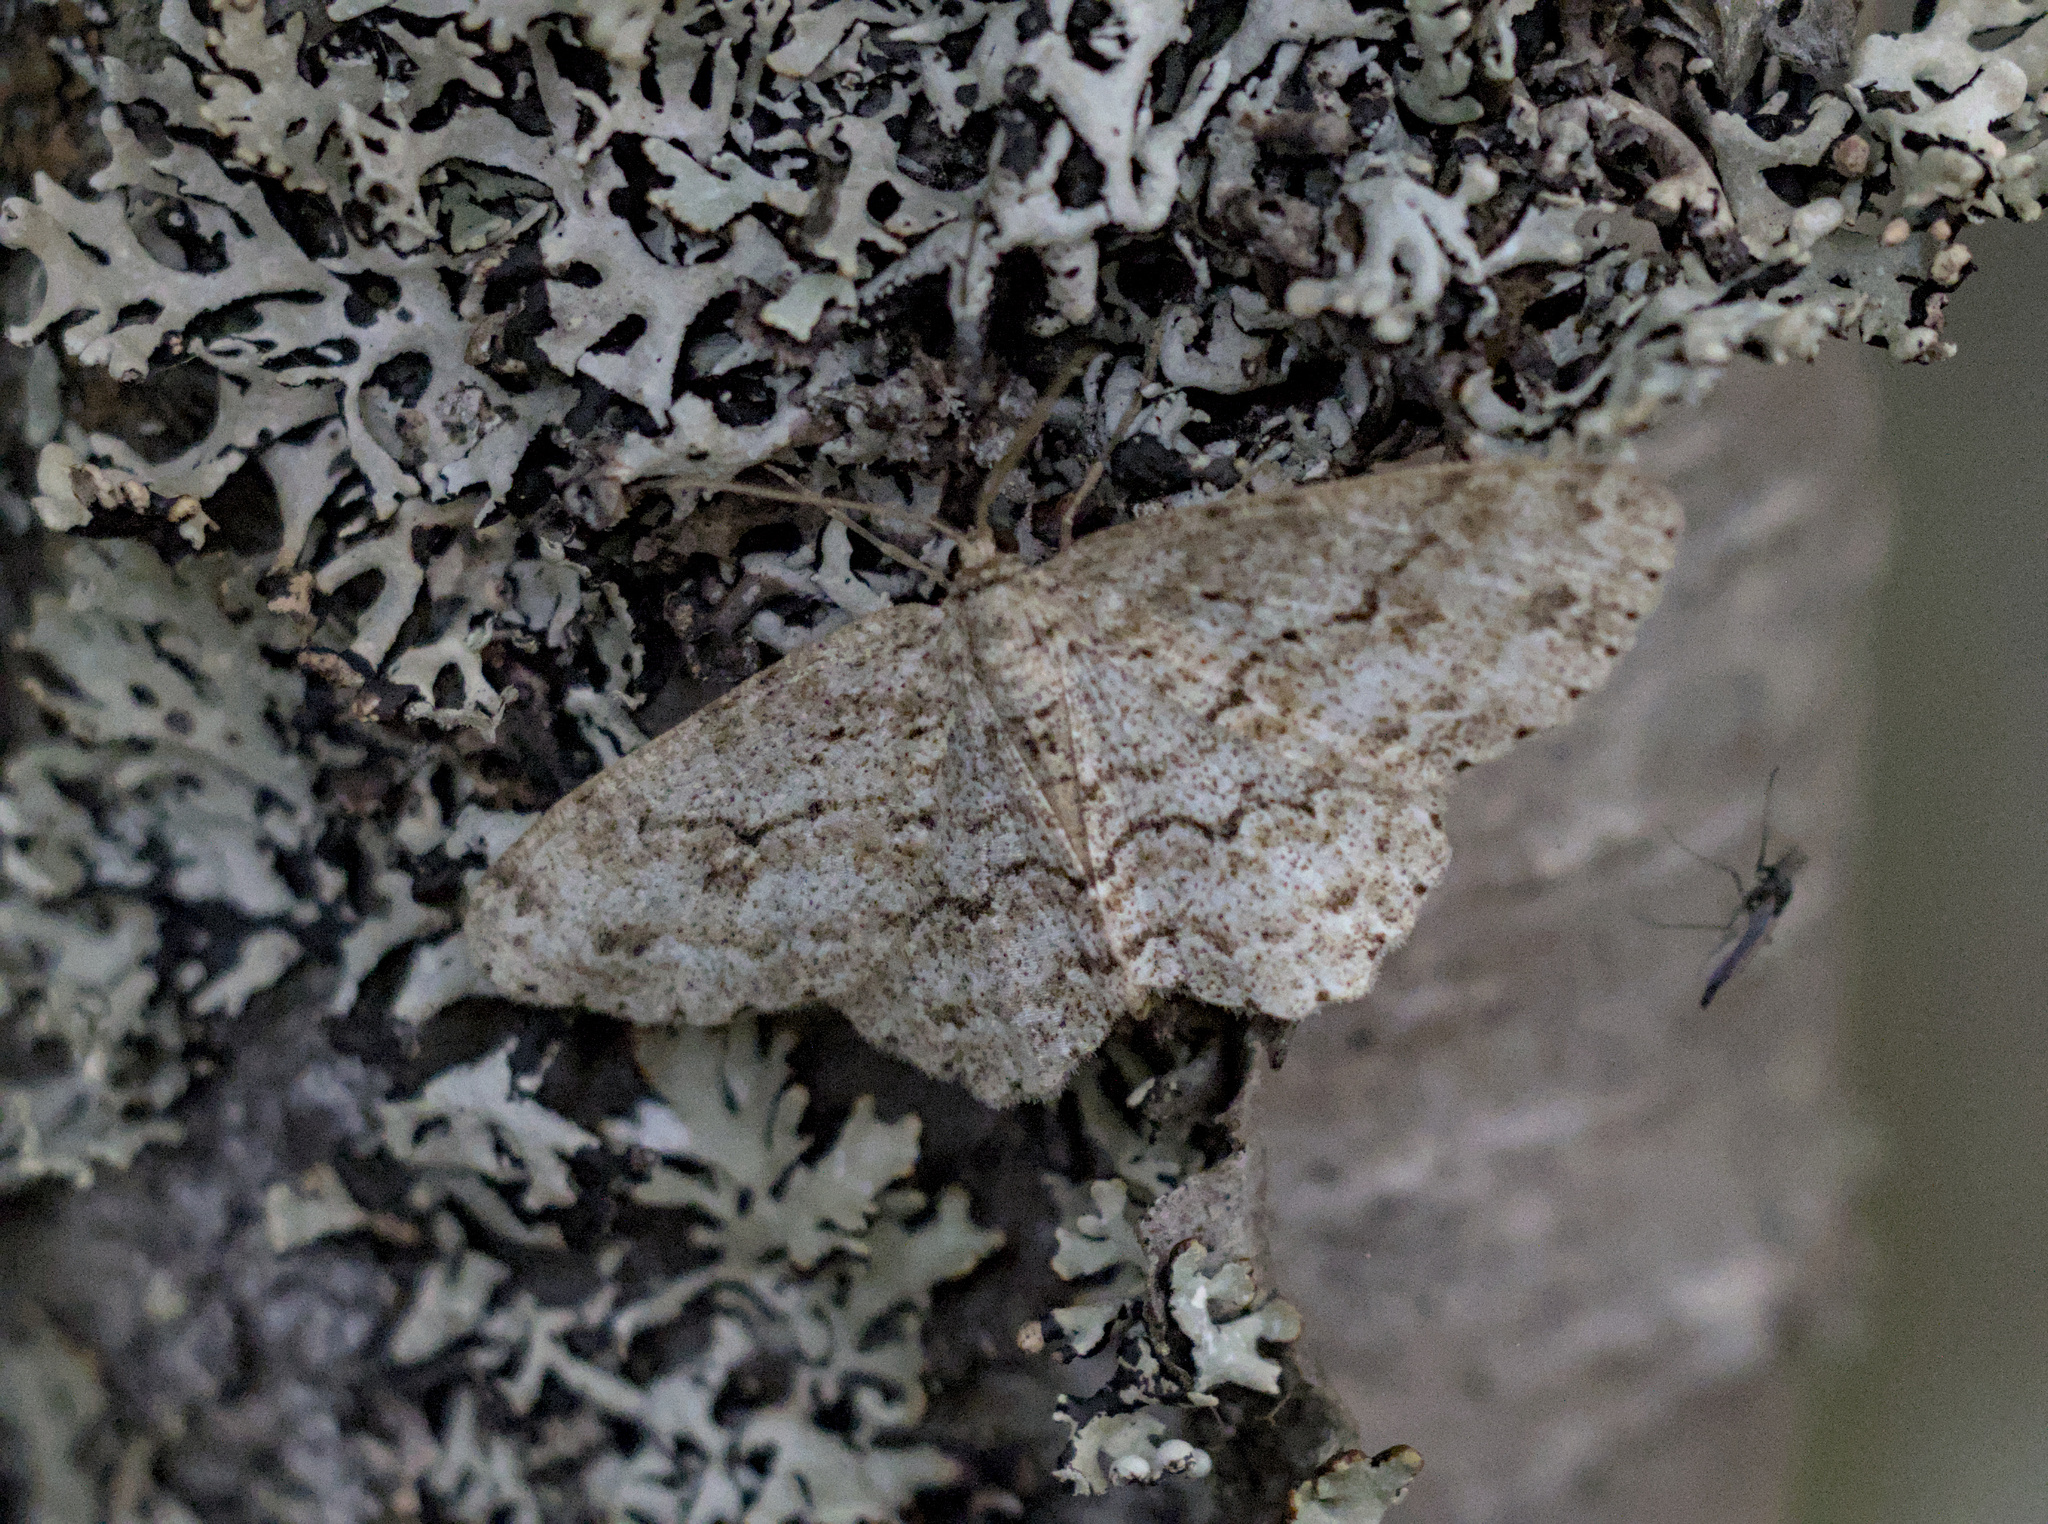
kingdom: Animalia
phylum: Arthropoda
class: Insecta
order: Lepidoptera
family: Geometridae
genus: Ectropis
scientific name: Ectropis crepuscularia
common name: Engrailed
